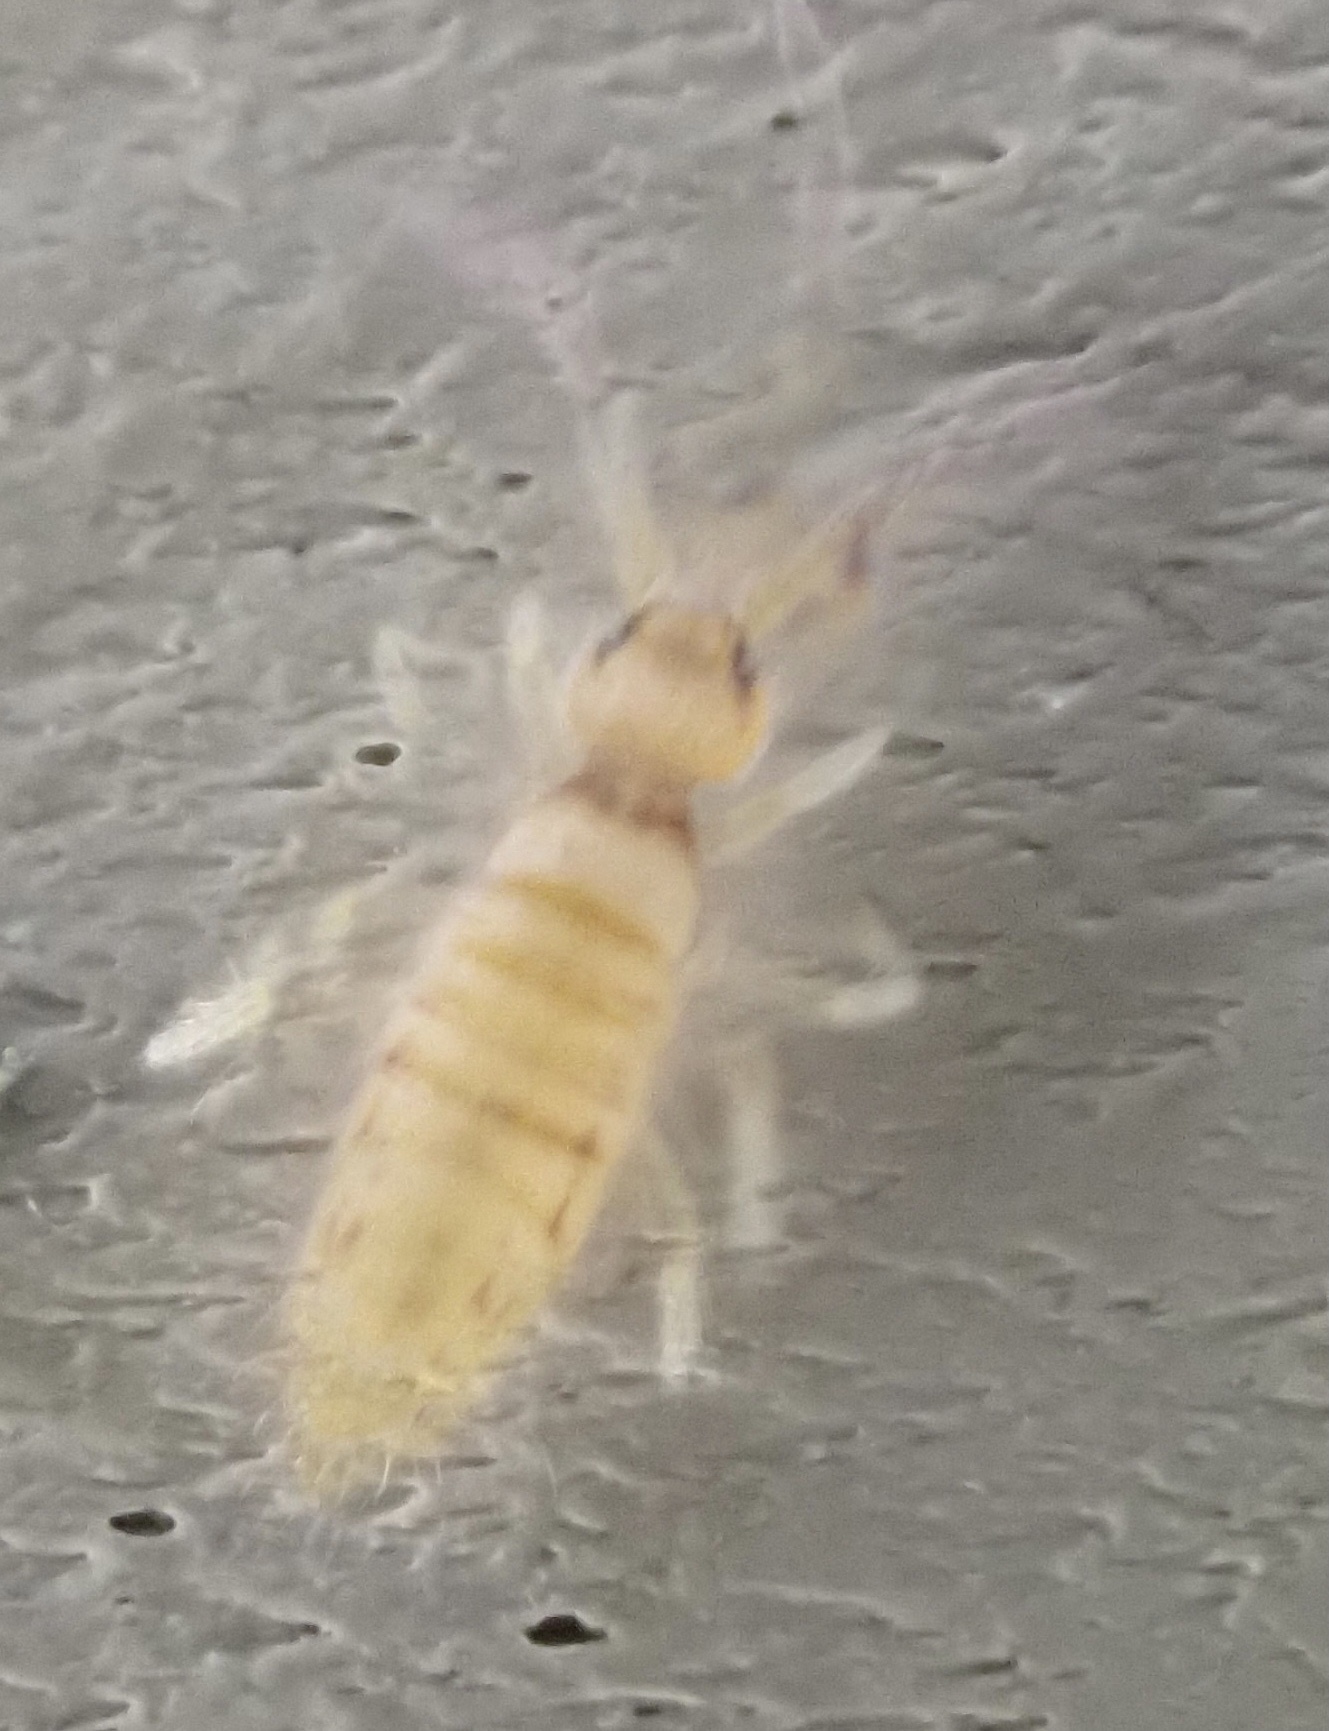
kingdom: Animalia
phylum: Arthropoda
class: Collembola
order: Entomobryomorpha
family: Entomobryidae
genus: Entomobrya
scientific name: Entomobrya atrocincta
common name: Springtail
